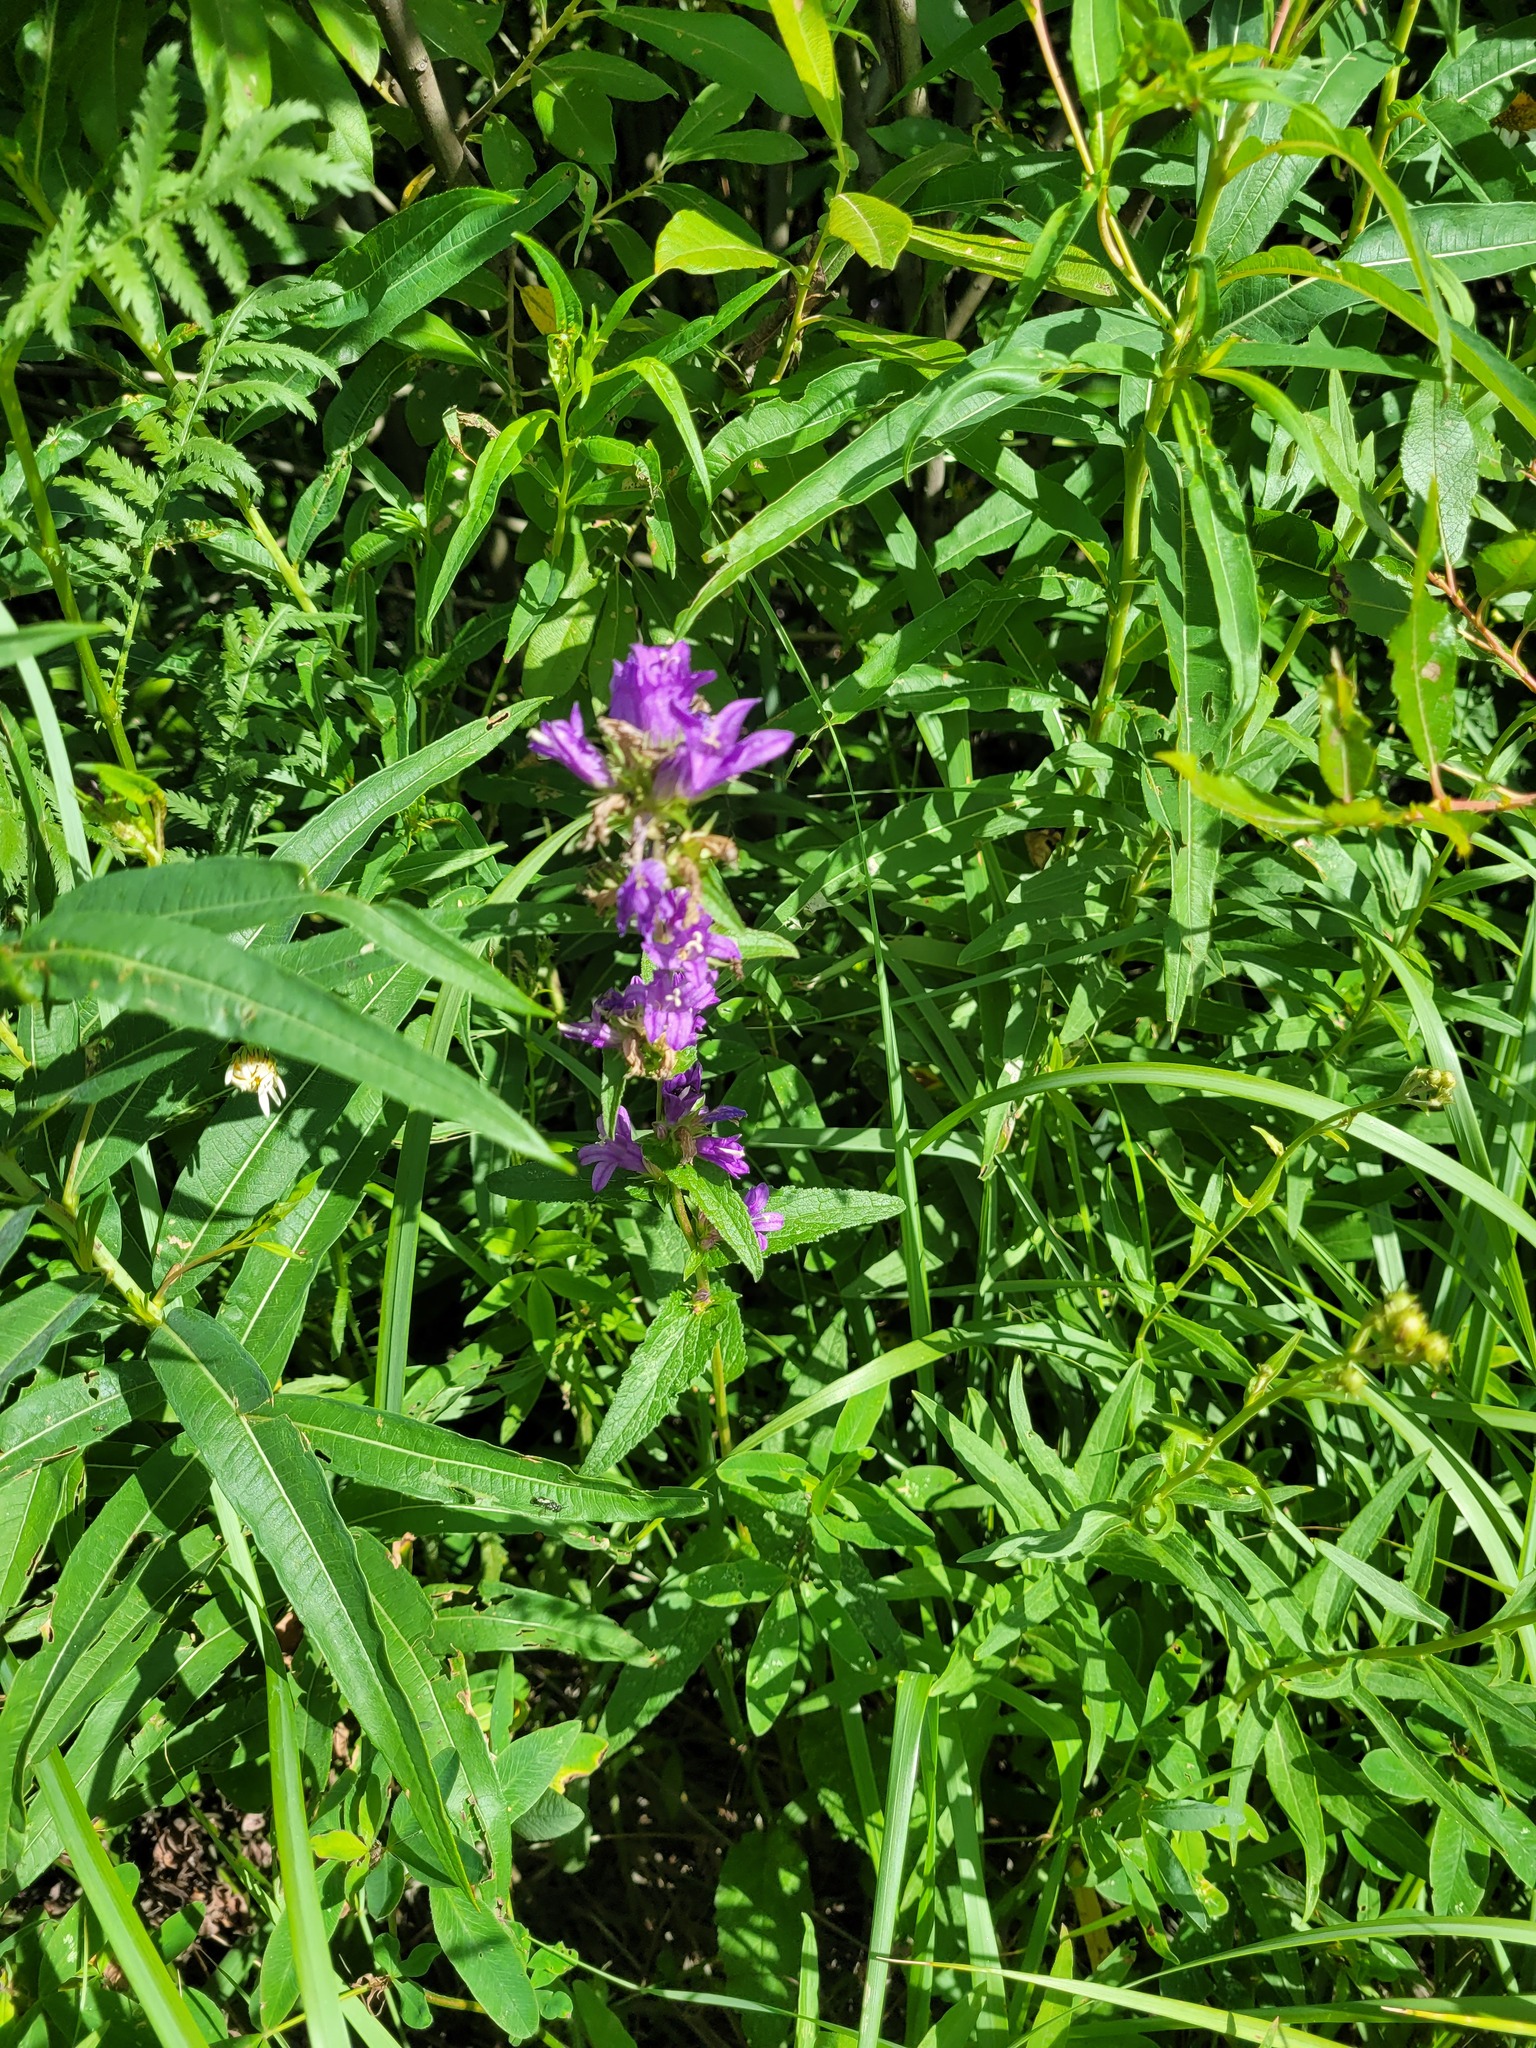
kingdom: Plantae
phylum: Tracheophyta
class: Magnoliopsida
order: Asterales
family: Campanulaceae
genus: Campanula
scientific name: Campanula glomerata
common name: Clustered bellflower
